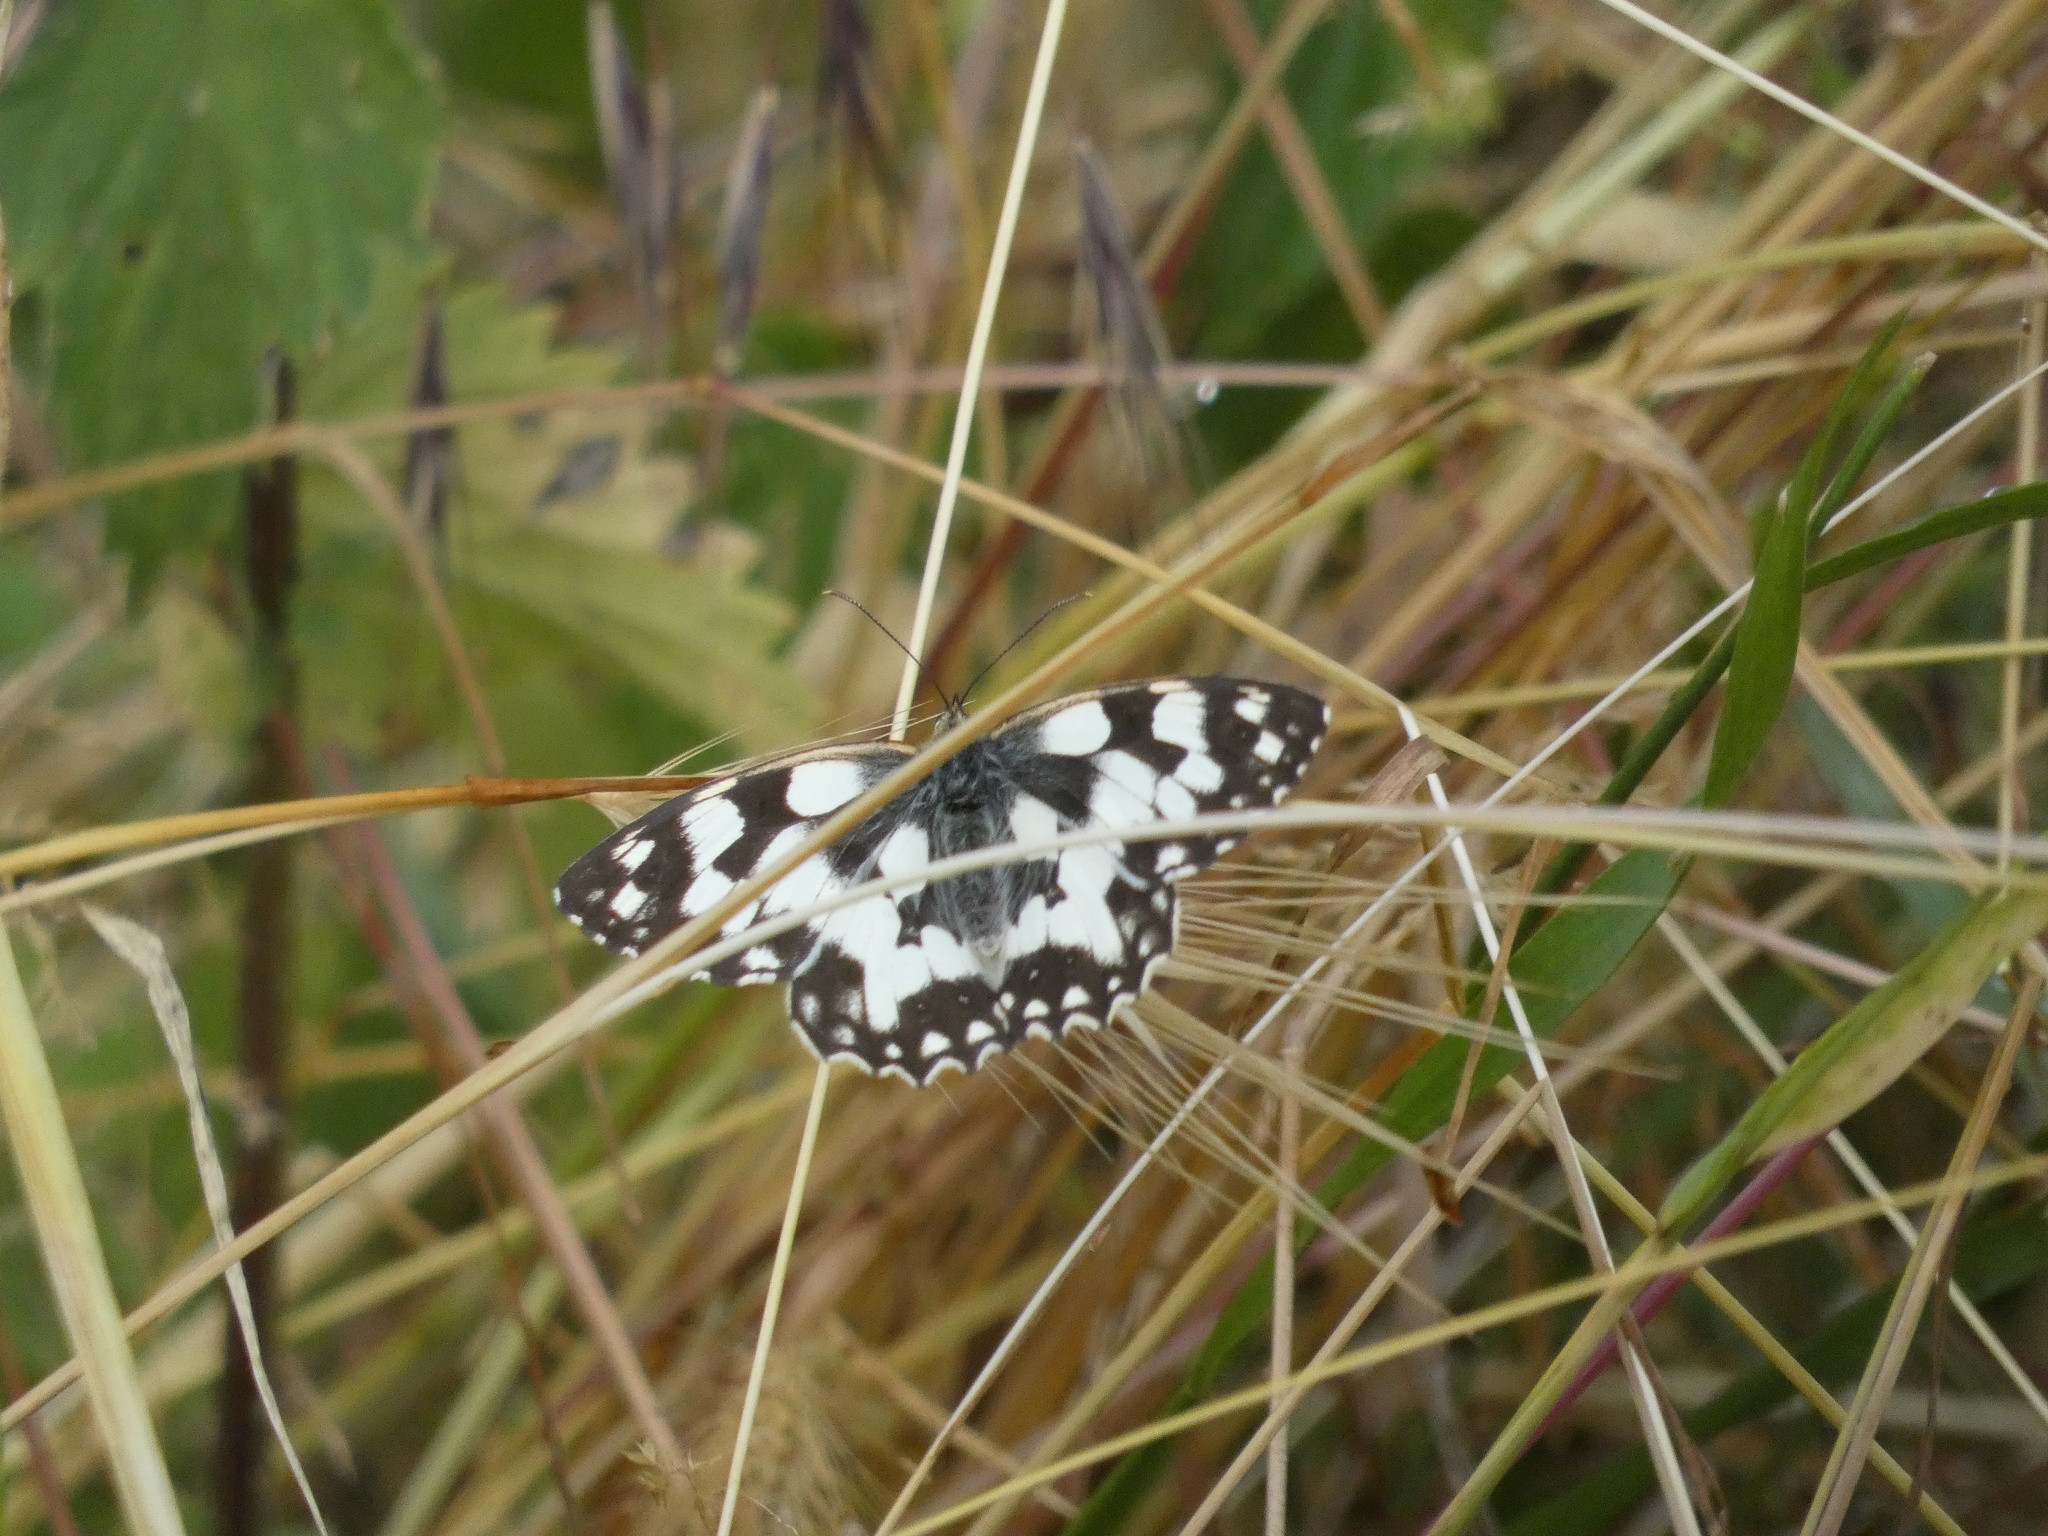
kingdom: Animalia
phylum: Arthropoda
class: Insecta
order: Lepidoptera
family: Nymphalidae
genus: Melanargia
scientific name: Melanargia galathea
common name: Marbled white
